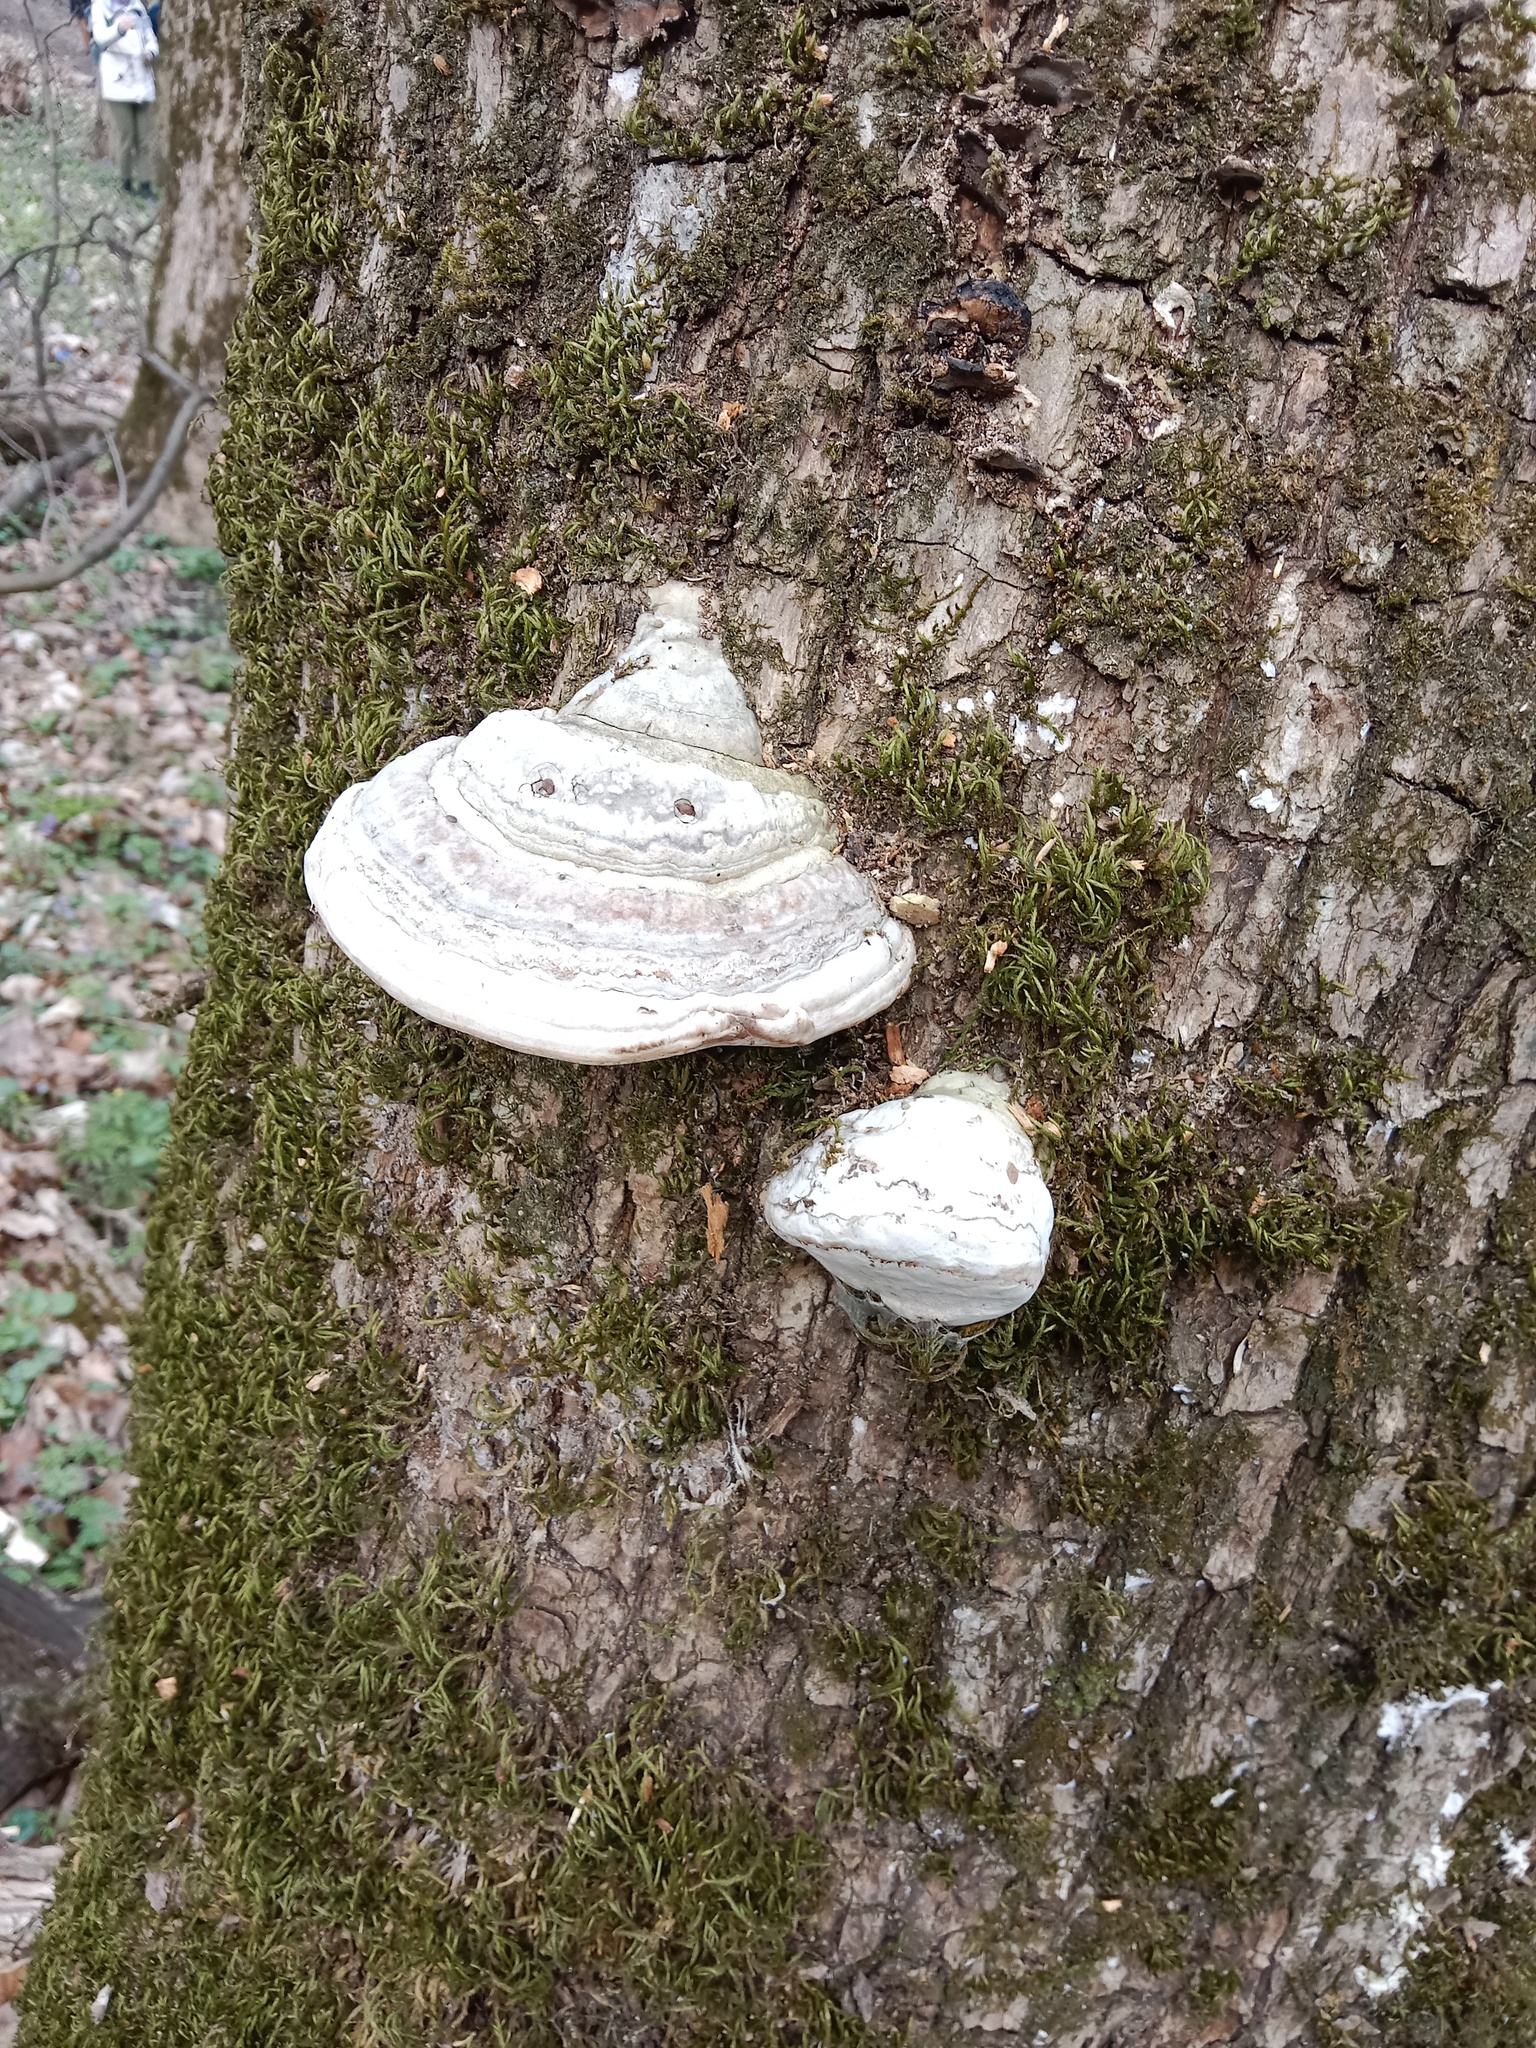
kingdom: Fungi
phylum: Basidiomycota
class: Agaricomycetes
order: Polyporales
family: Polyporaceae
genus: Fomes
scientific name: Fomes fomentarius
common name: Hoof fungus
